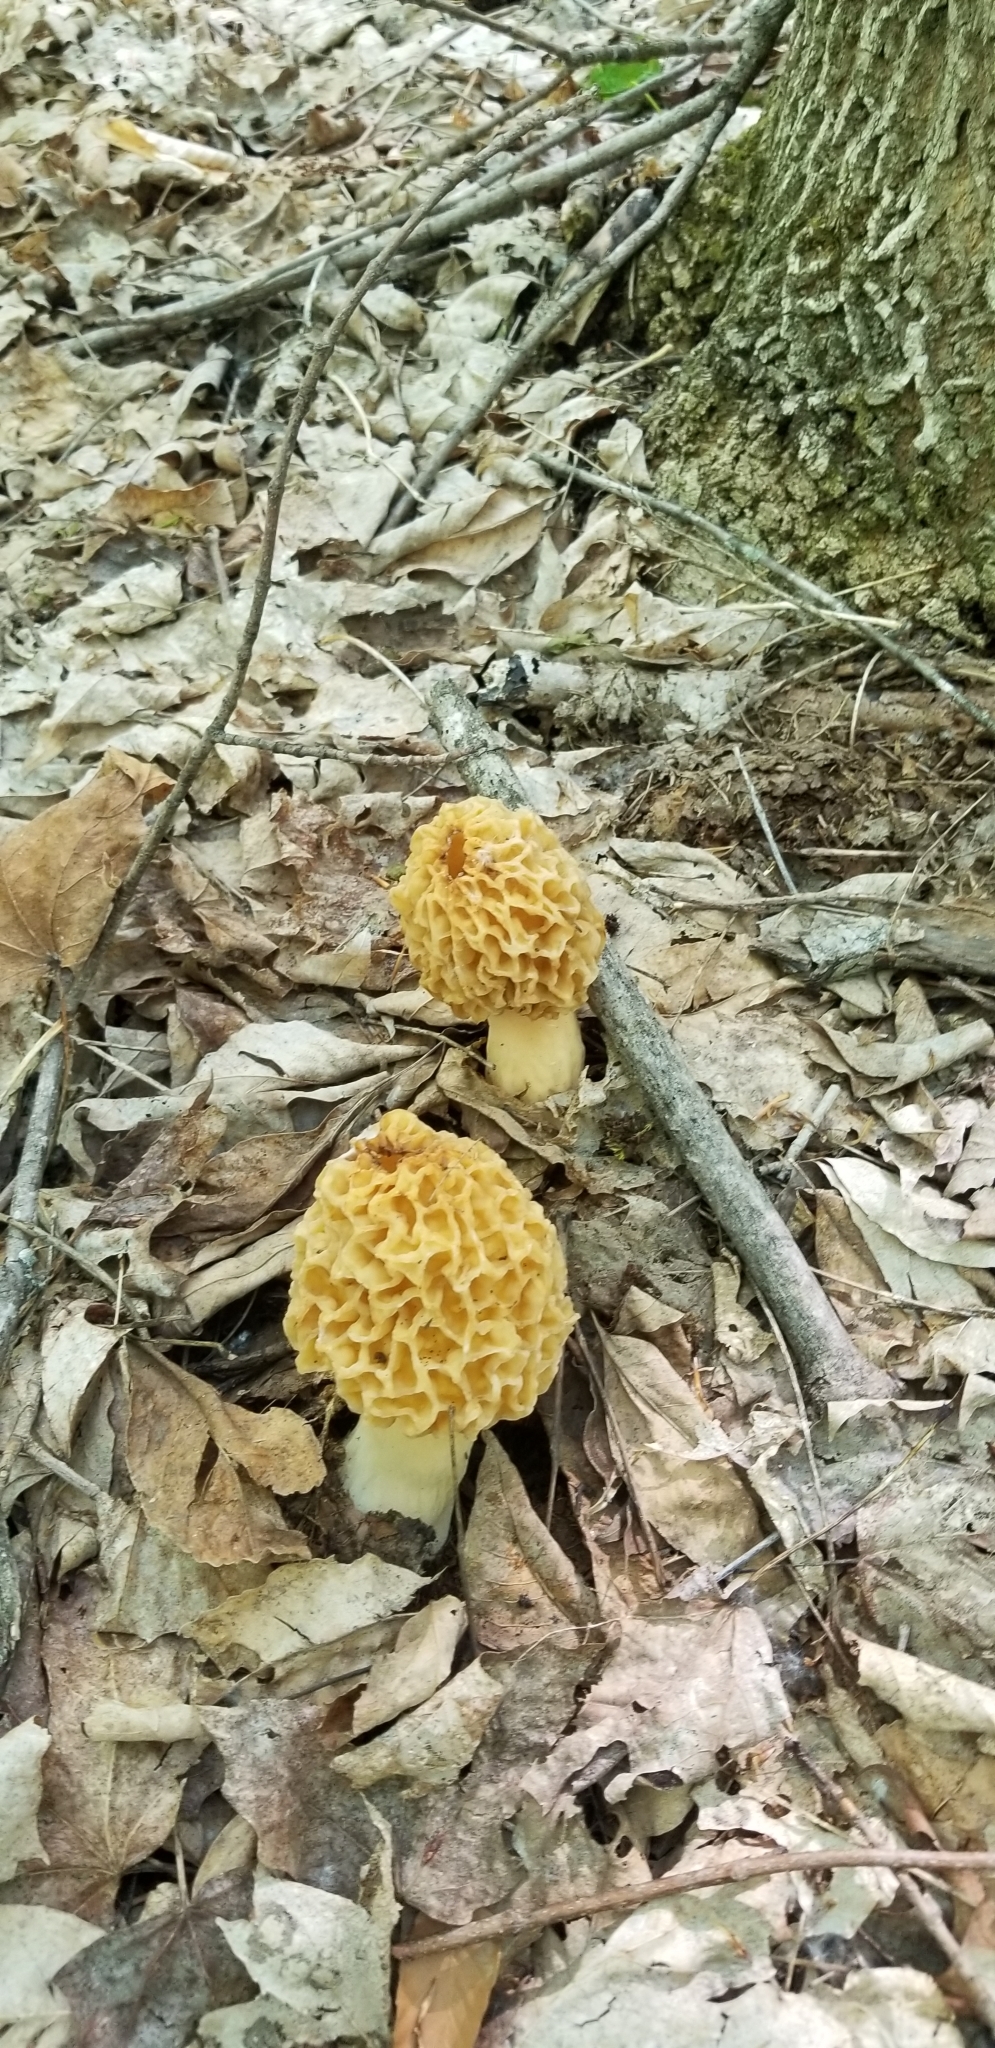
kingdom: Fungi
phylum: Ascomycota
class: Pezizomycetes
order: Pezizales
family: Morchellaceae
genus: Morchella
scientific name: Morchella americana
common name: White morel
